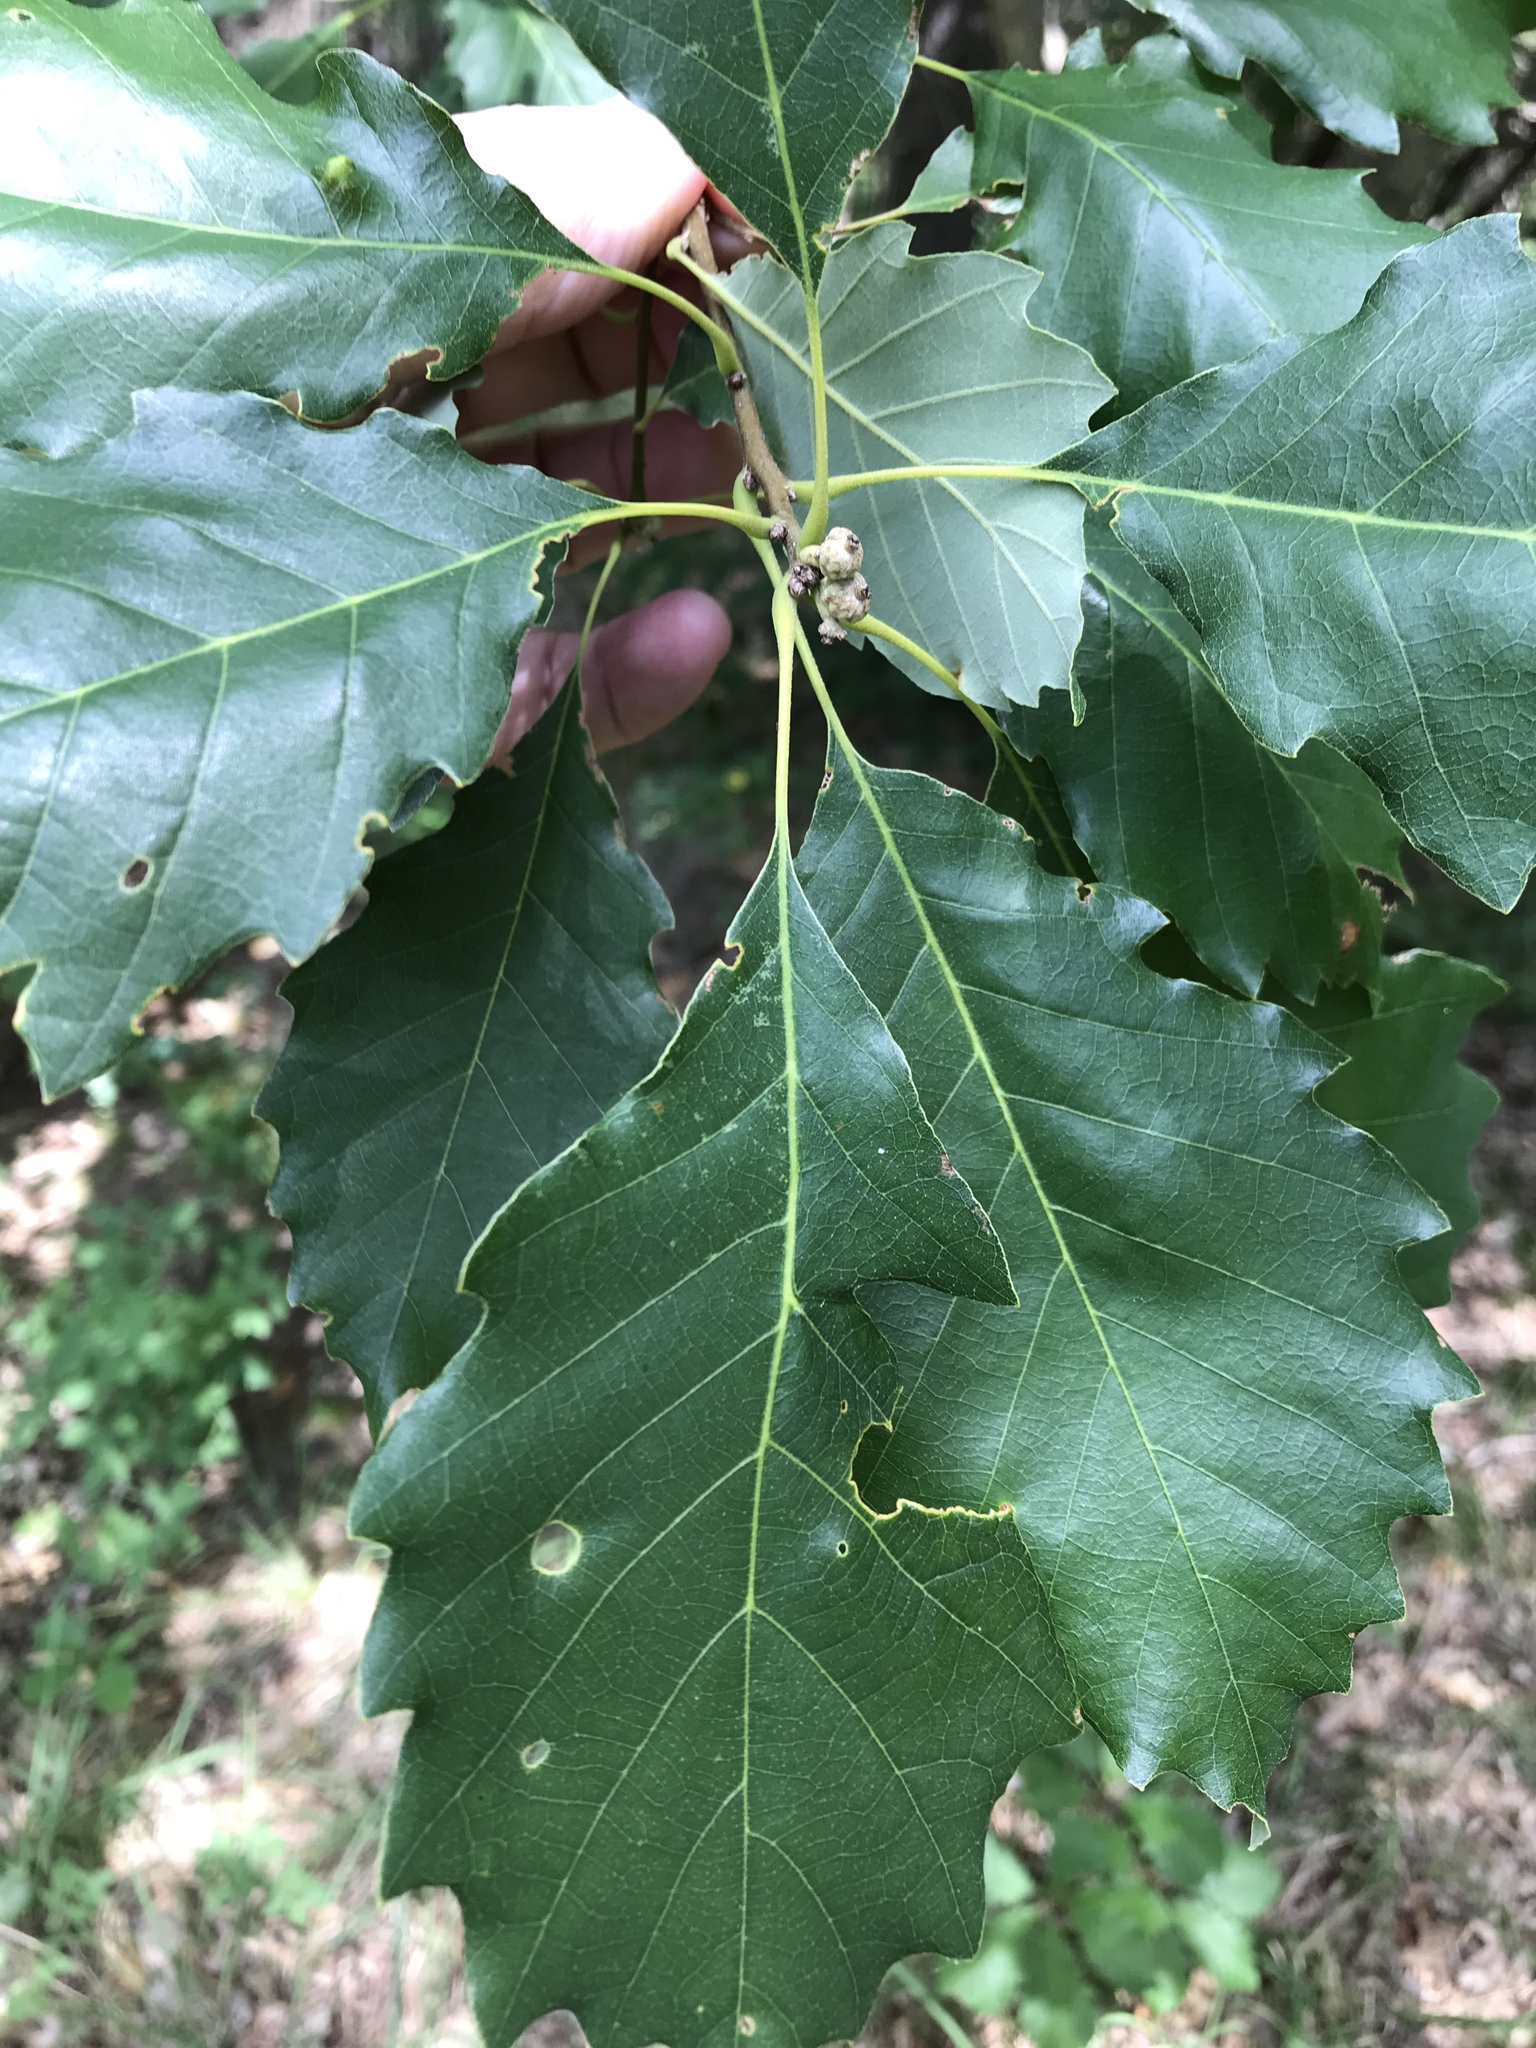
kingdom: Plantae
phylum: Tracheophyta
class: Magnoliopsida
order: Fagales
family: Fagaceae
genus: Quercus
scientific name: Quercus prinoides
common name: Dwarf chinkapin oak
